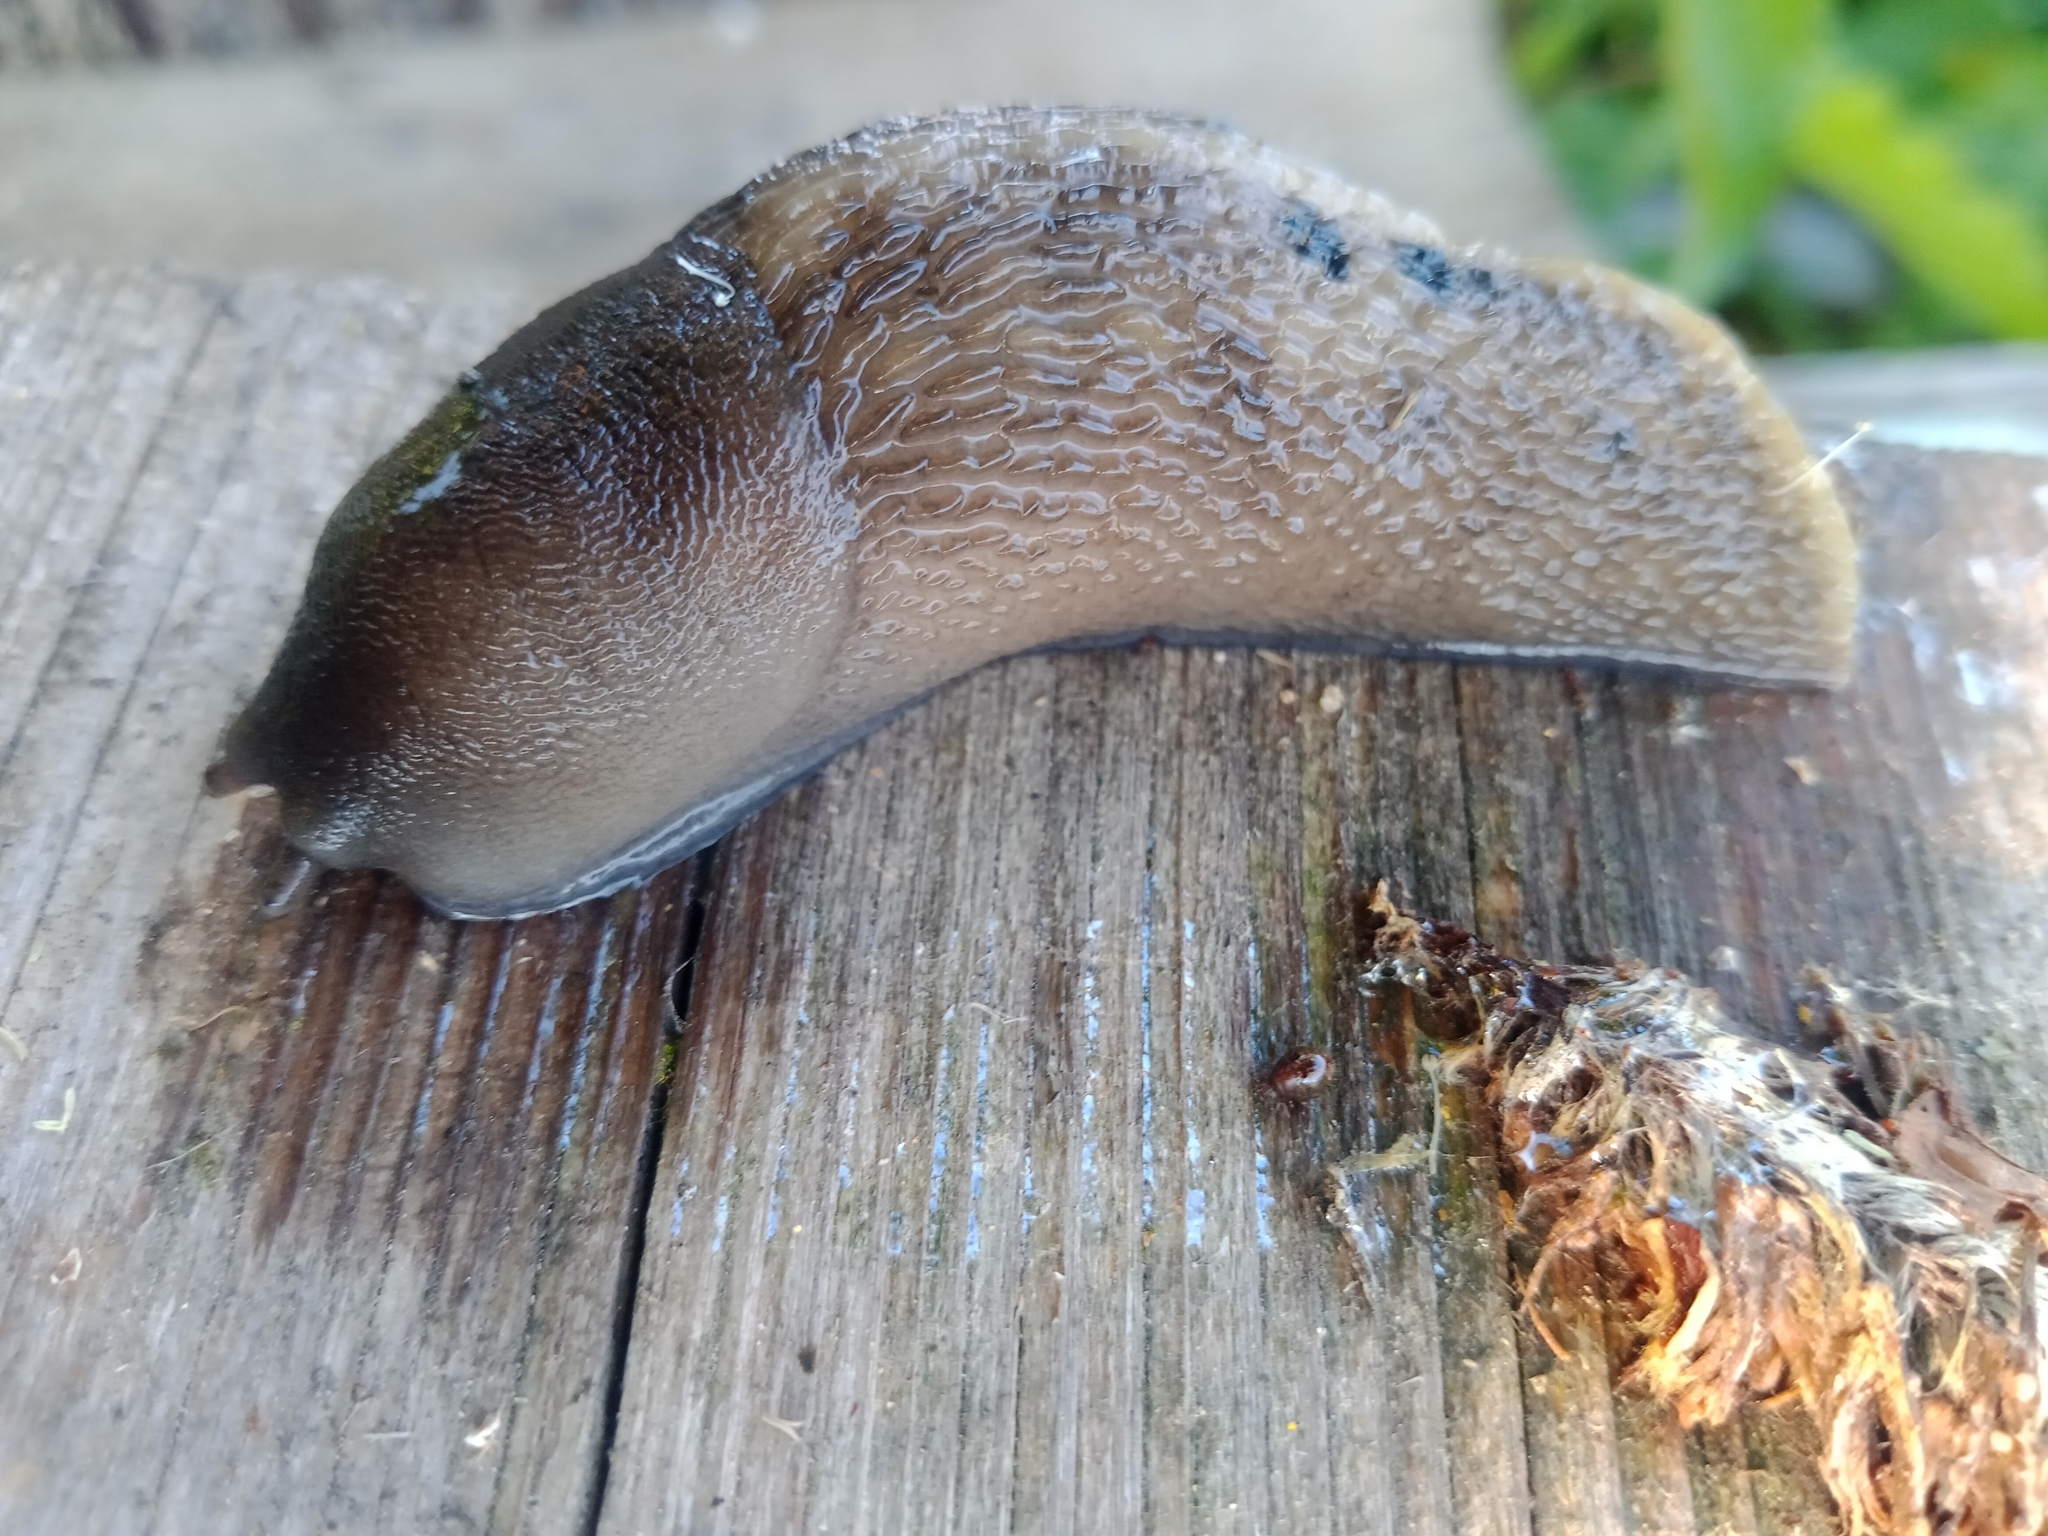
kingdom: Animalia
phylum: Mollusca
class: Gastropoda
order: Stylommatophora
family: Limacidae
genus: Limax
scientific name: Limax cinereoniger
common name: Ash-black slug
